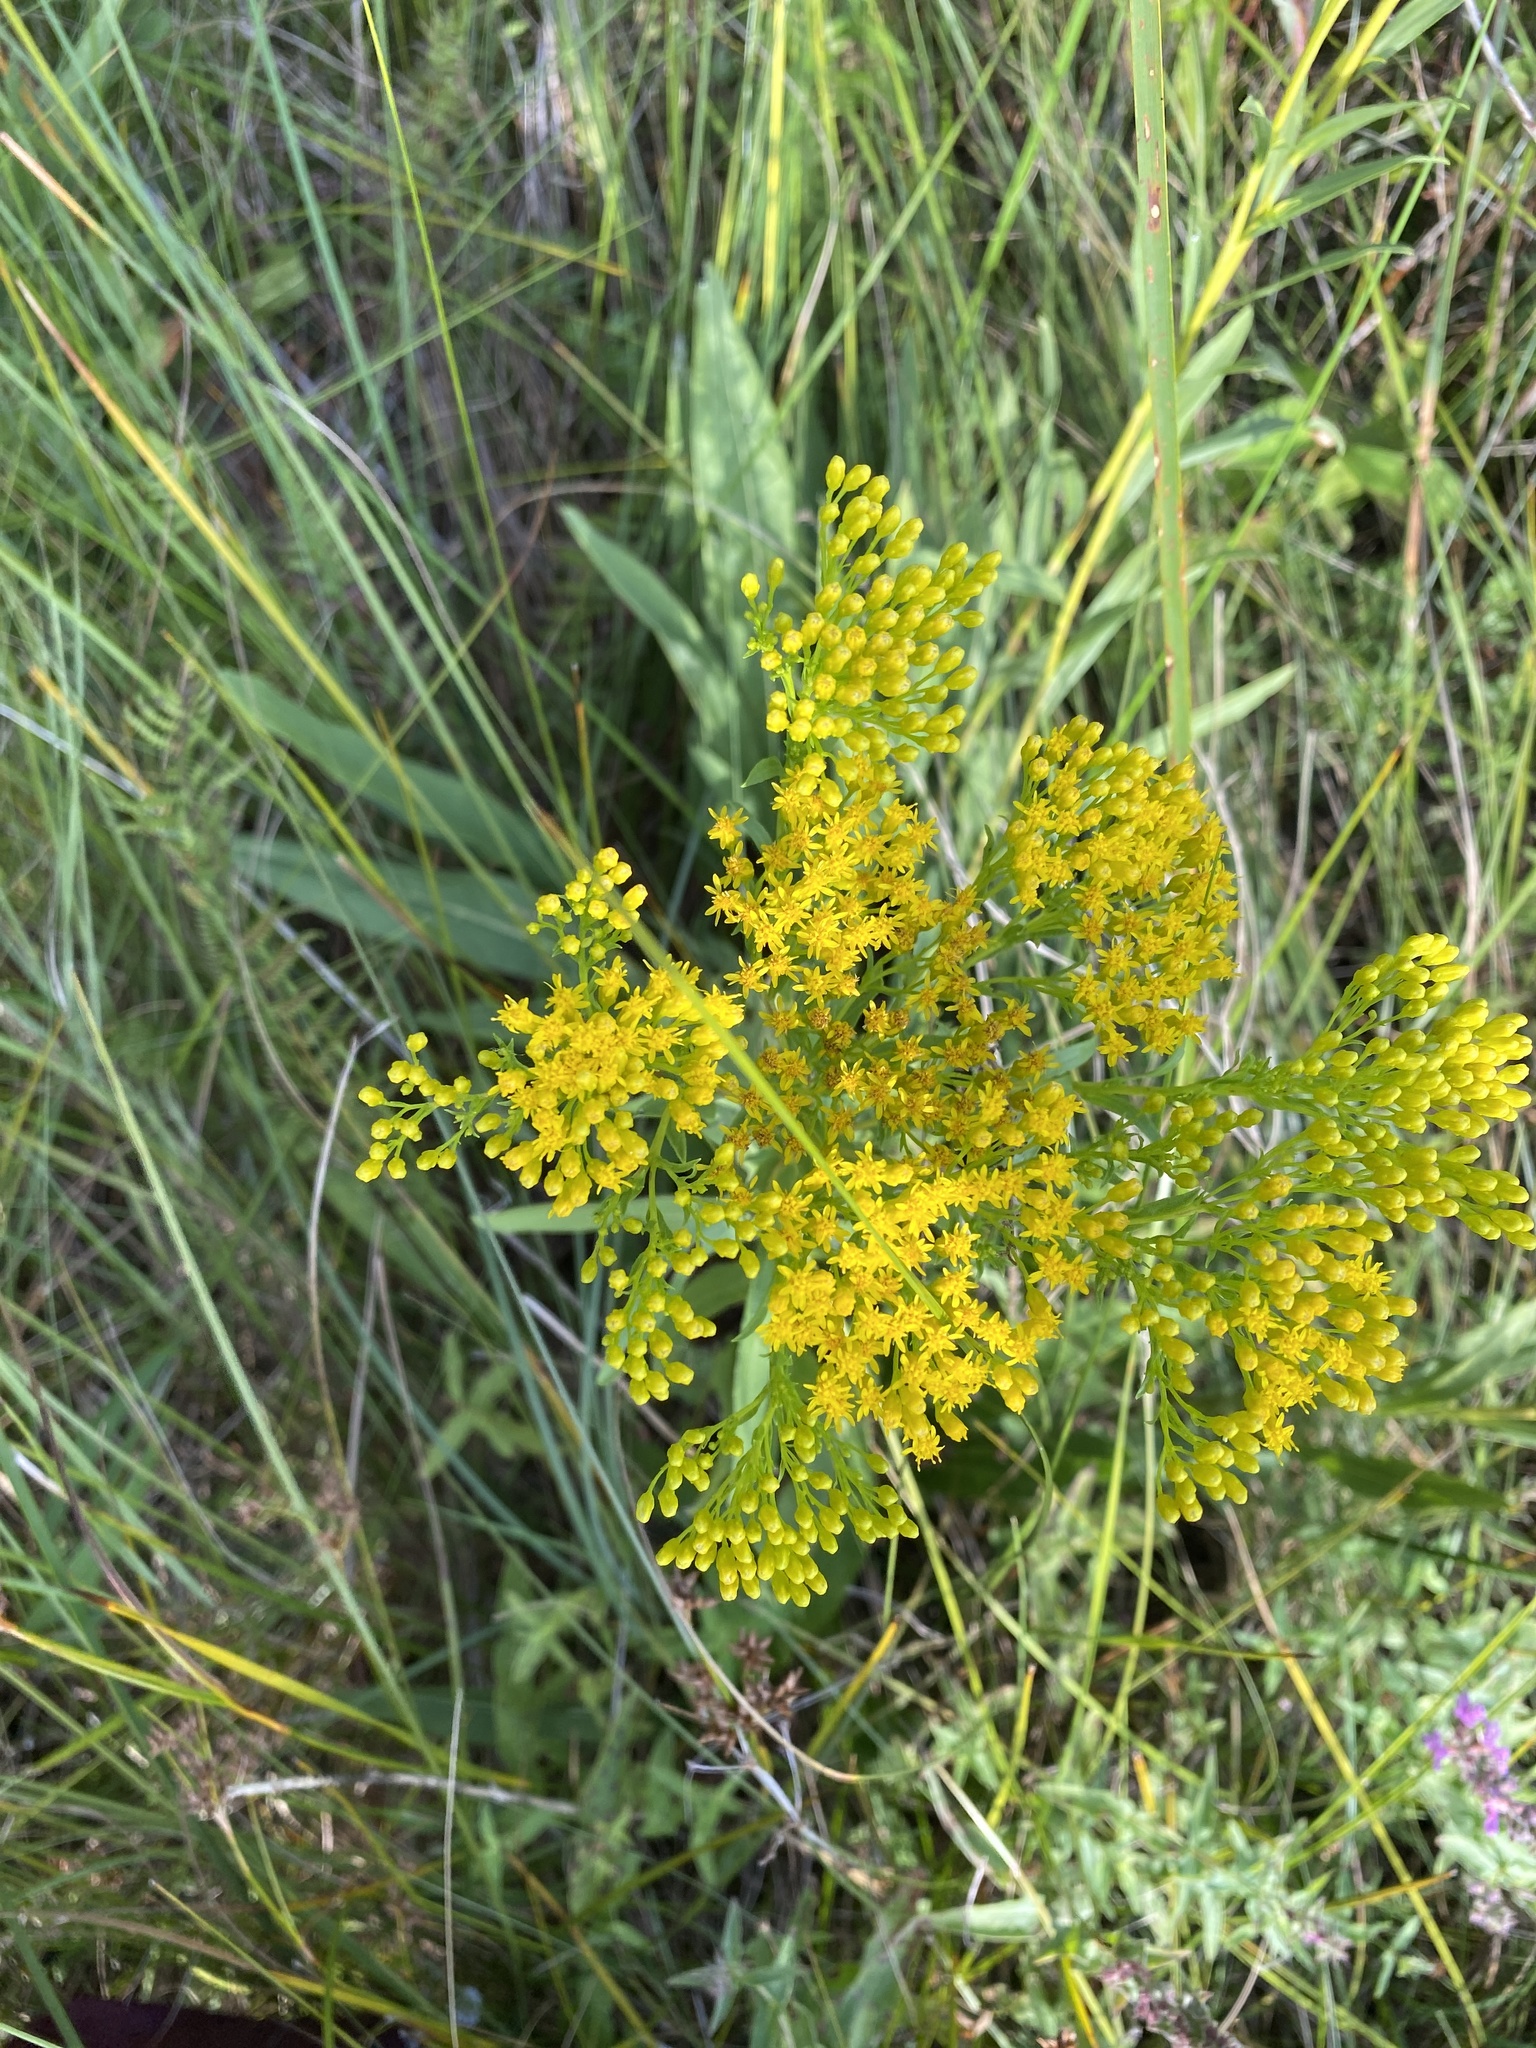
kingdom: Plantae
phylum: Tracheophyta
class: Magnoliopsida
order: Asterales
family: Asteraceae
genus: Solidago
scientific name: Solidago ohioensis
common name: Ohio goldenrod
